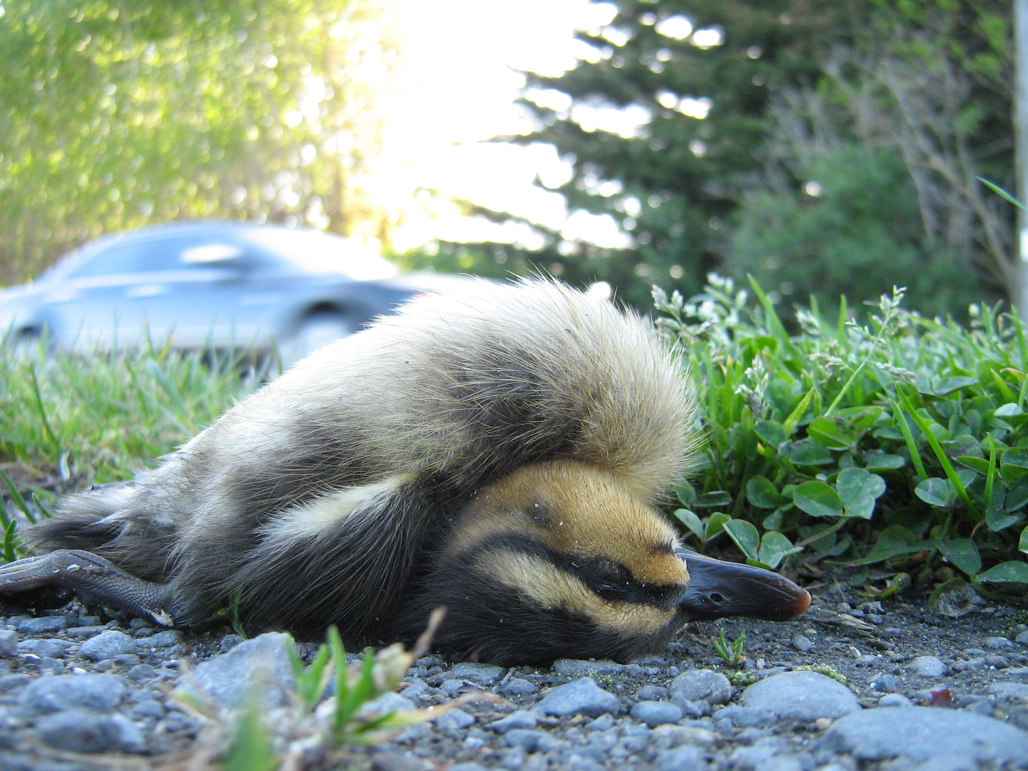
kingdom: Animalia
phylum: Chordata
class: Aves
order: Anseriformes
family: Anatidae
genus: Anas
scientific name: Anas platyrhynchos
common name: Mallard
